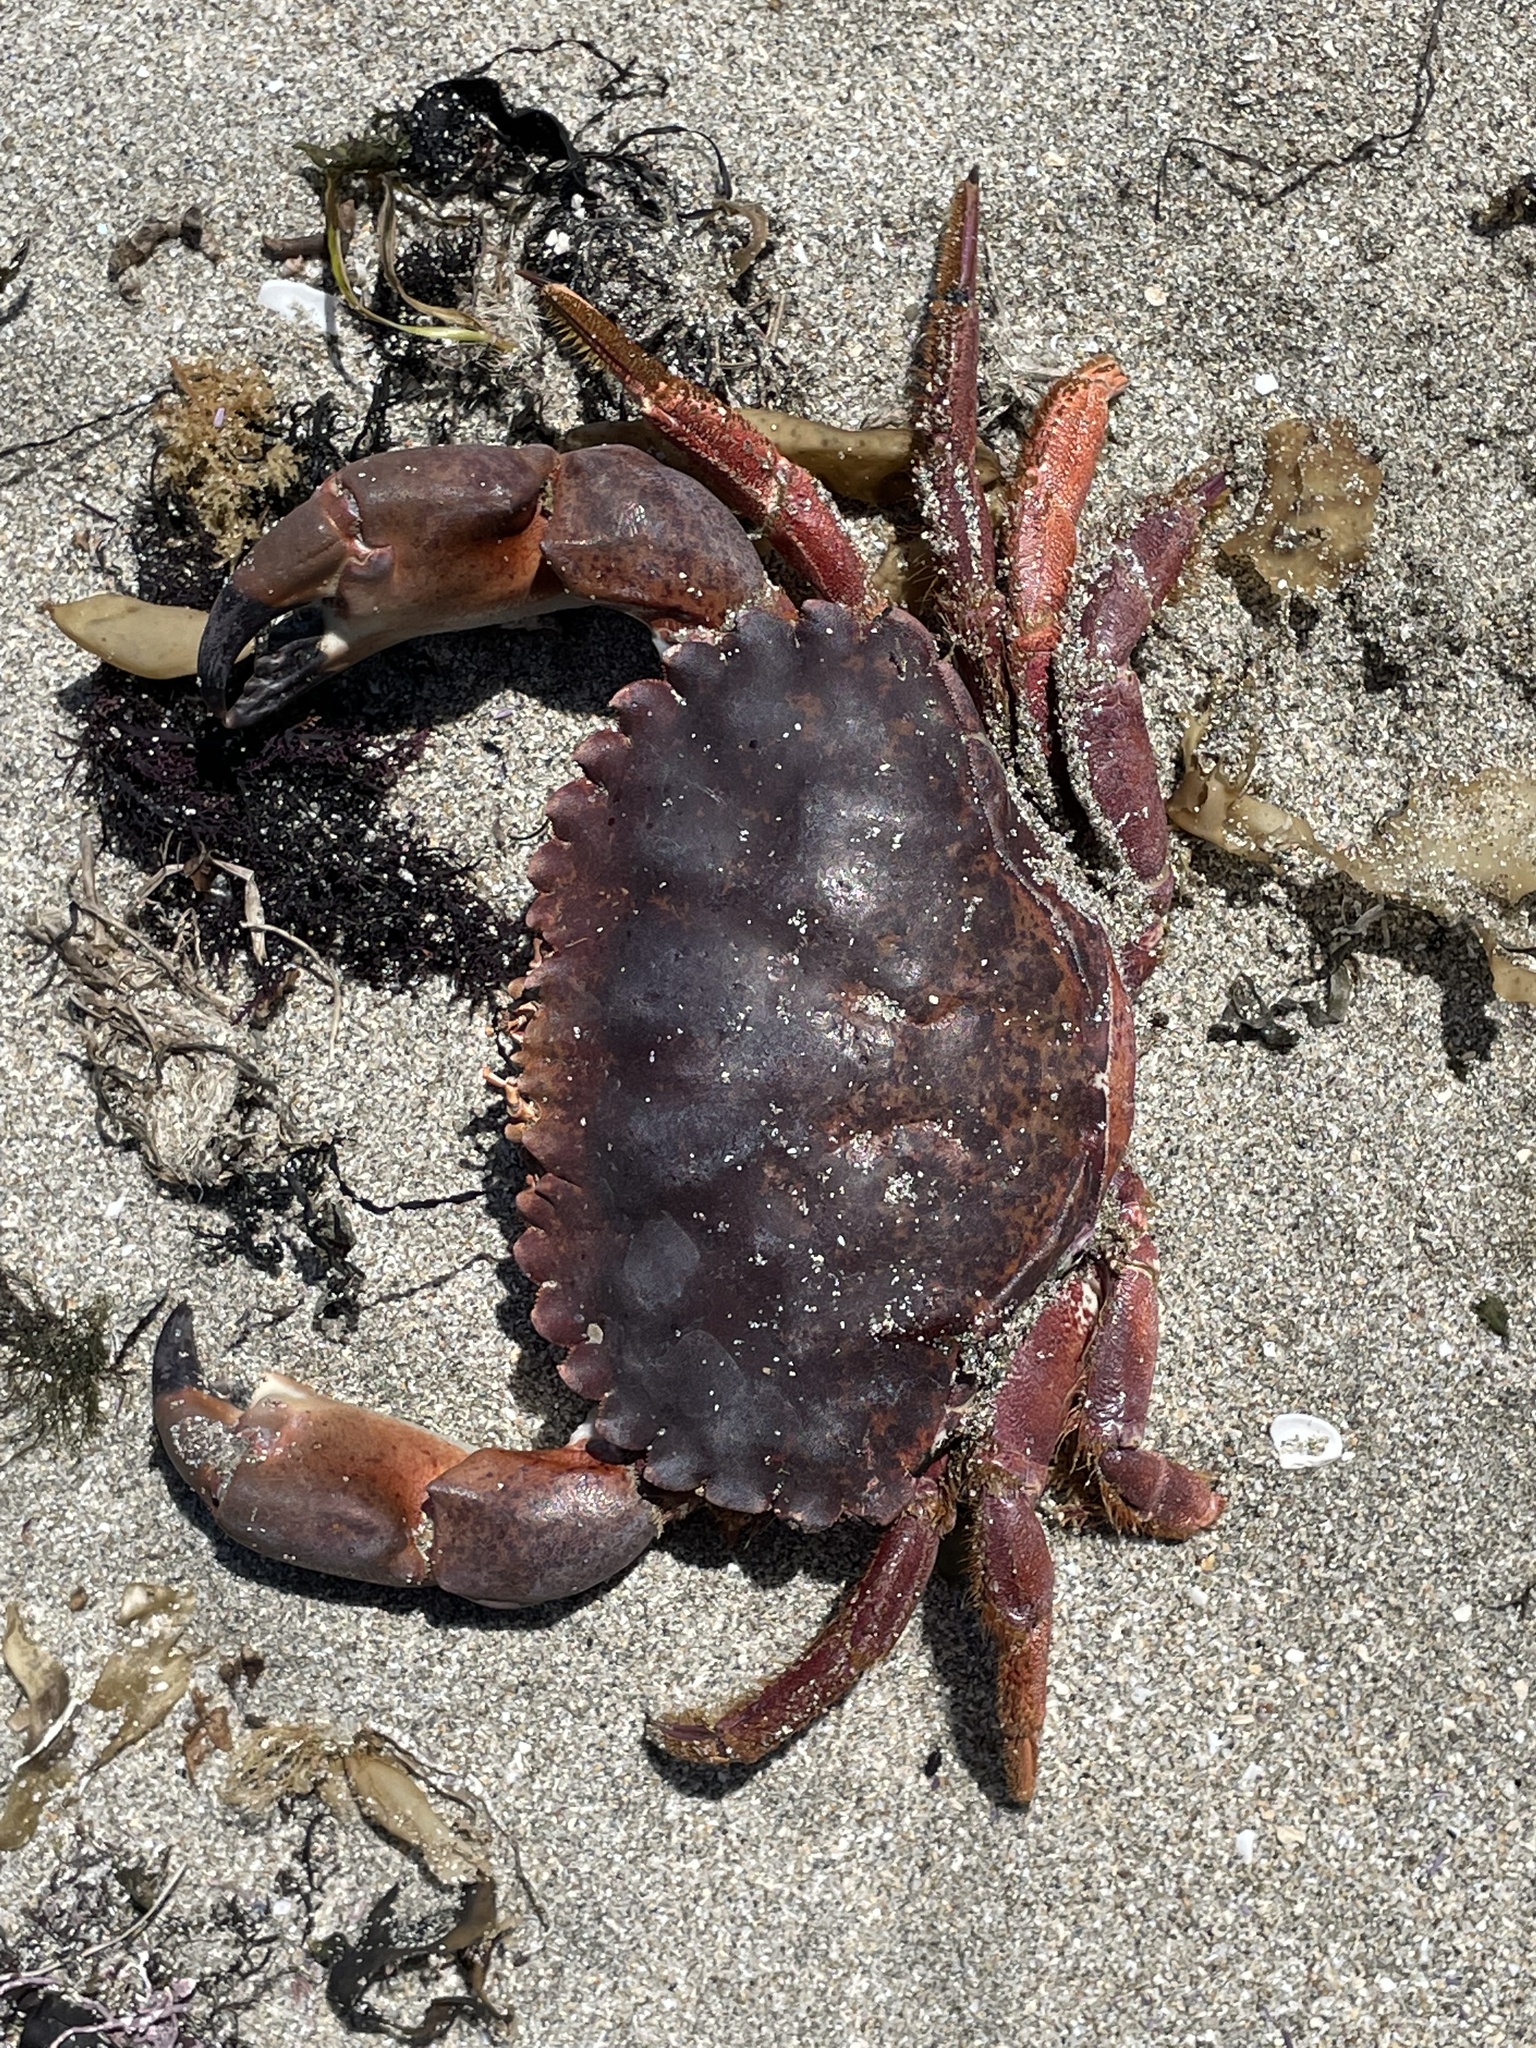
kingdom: Animalia
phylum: Arthropoda
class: Malacostraca
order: Decapoda
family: Cancridae
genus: Romaleon
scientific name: Romaleon antennarium
